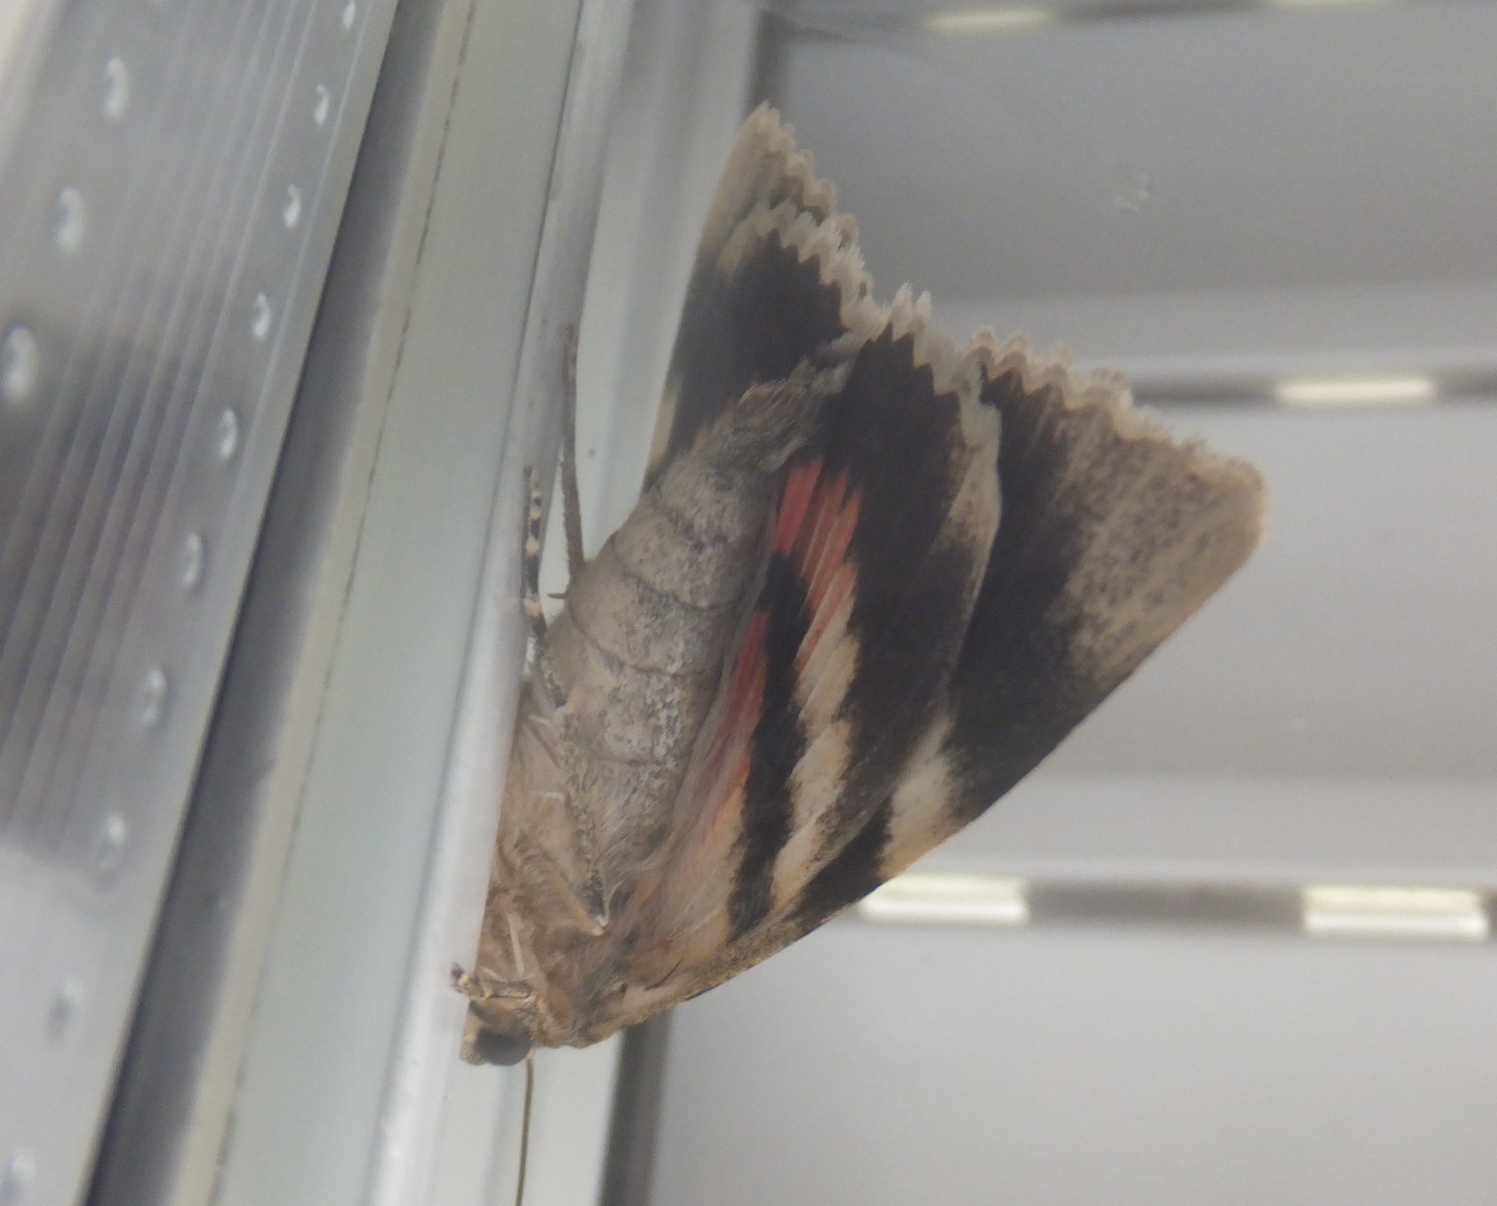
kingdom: Animalia
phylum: Arthropoda
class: Insecta
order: Lepidoptera
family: Erebidae
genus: Catocala
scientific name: Catocala elocata
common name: French red underwing
